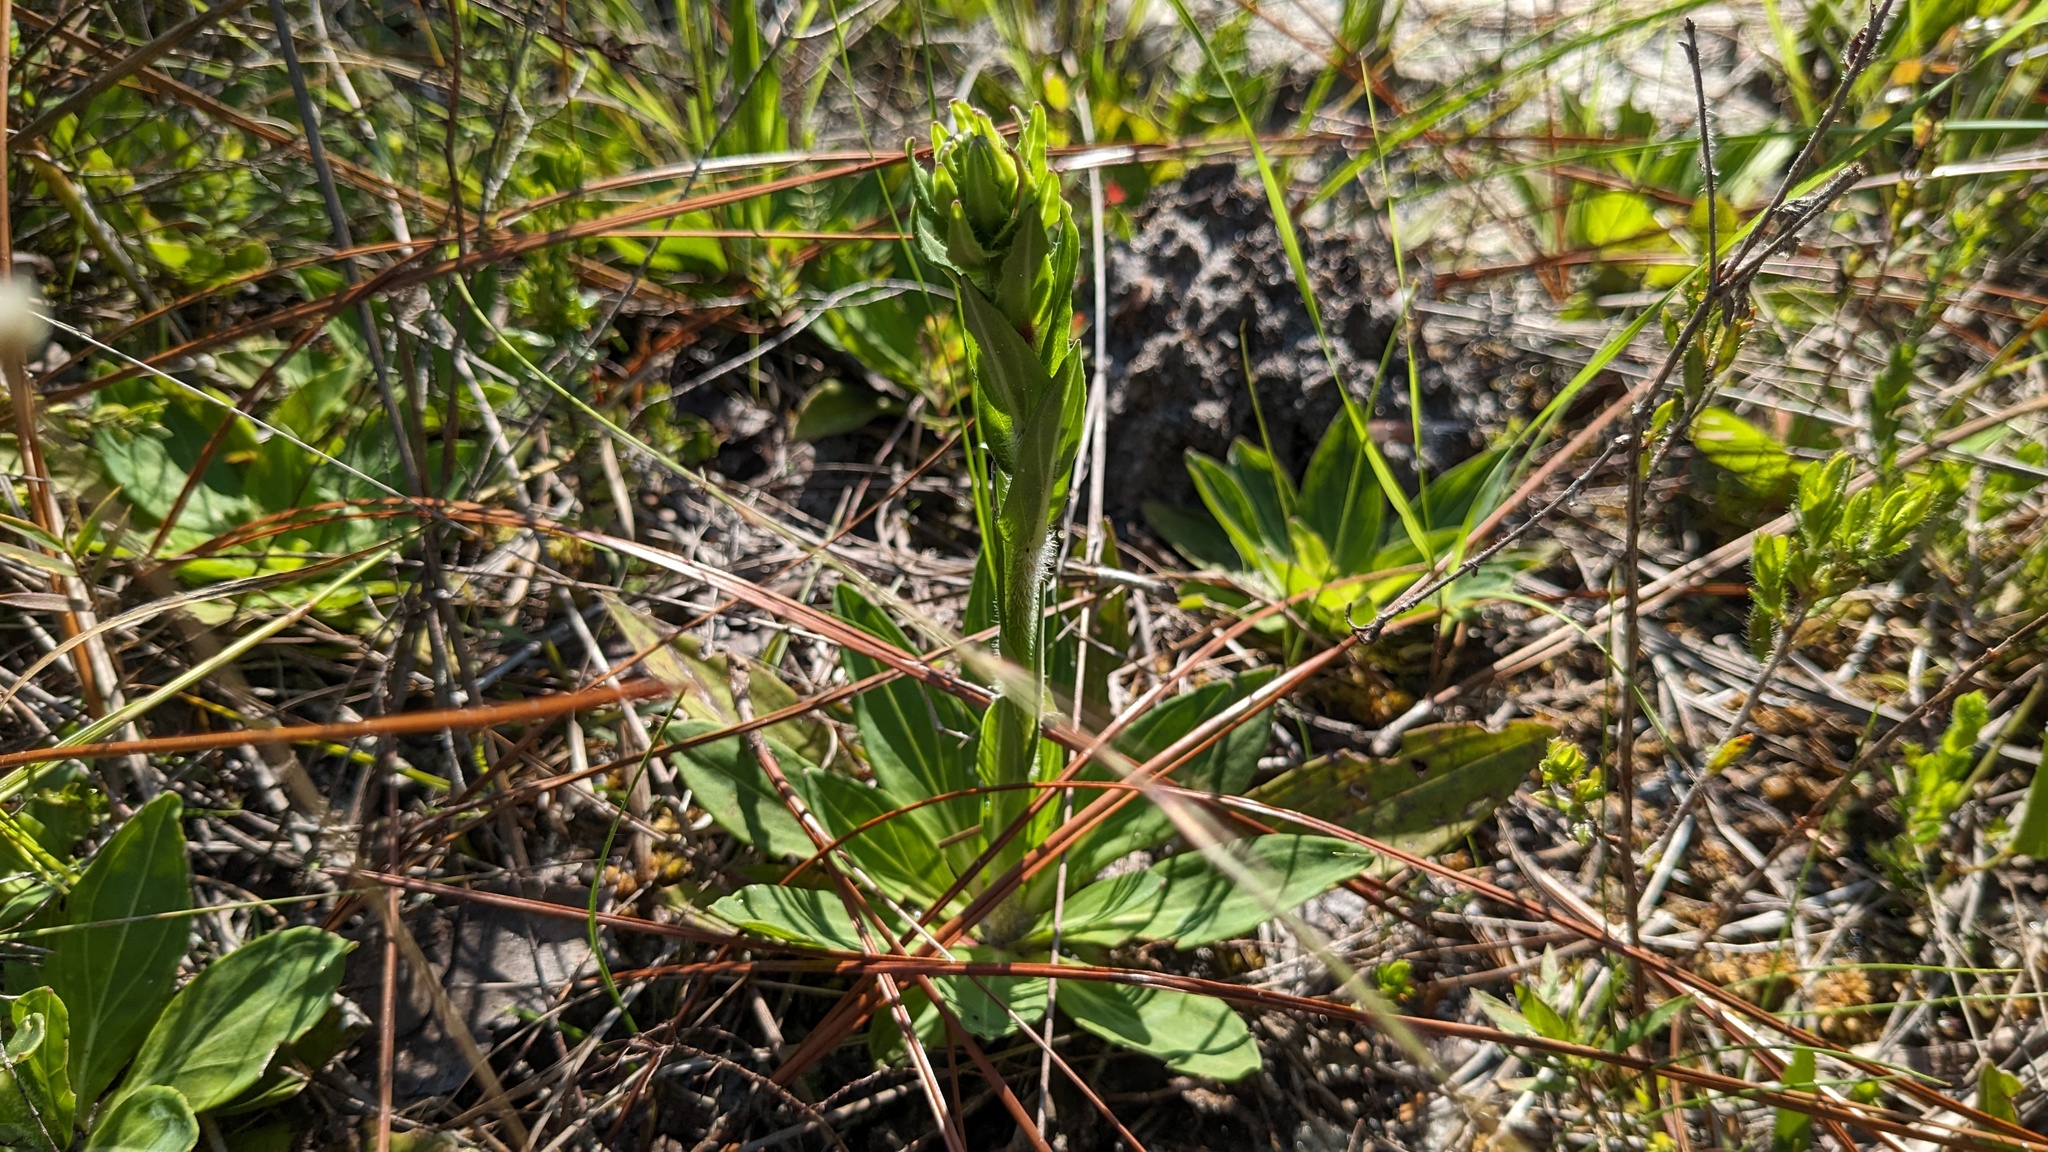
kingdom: Plantae
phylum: Tracheophyta
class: Magnoliopsida
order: Asterales
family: Asteraceae
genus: Carphephorus
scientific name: Carphephorus paniculatus
